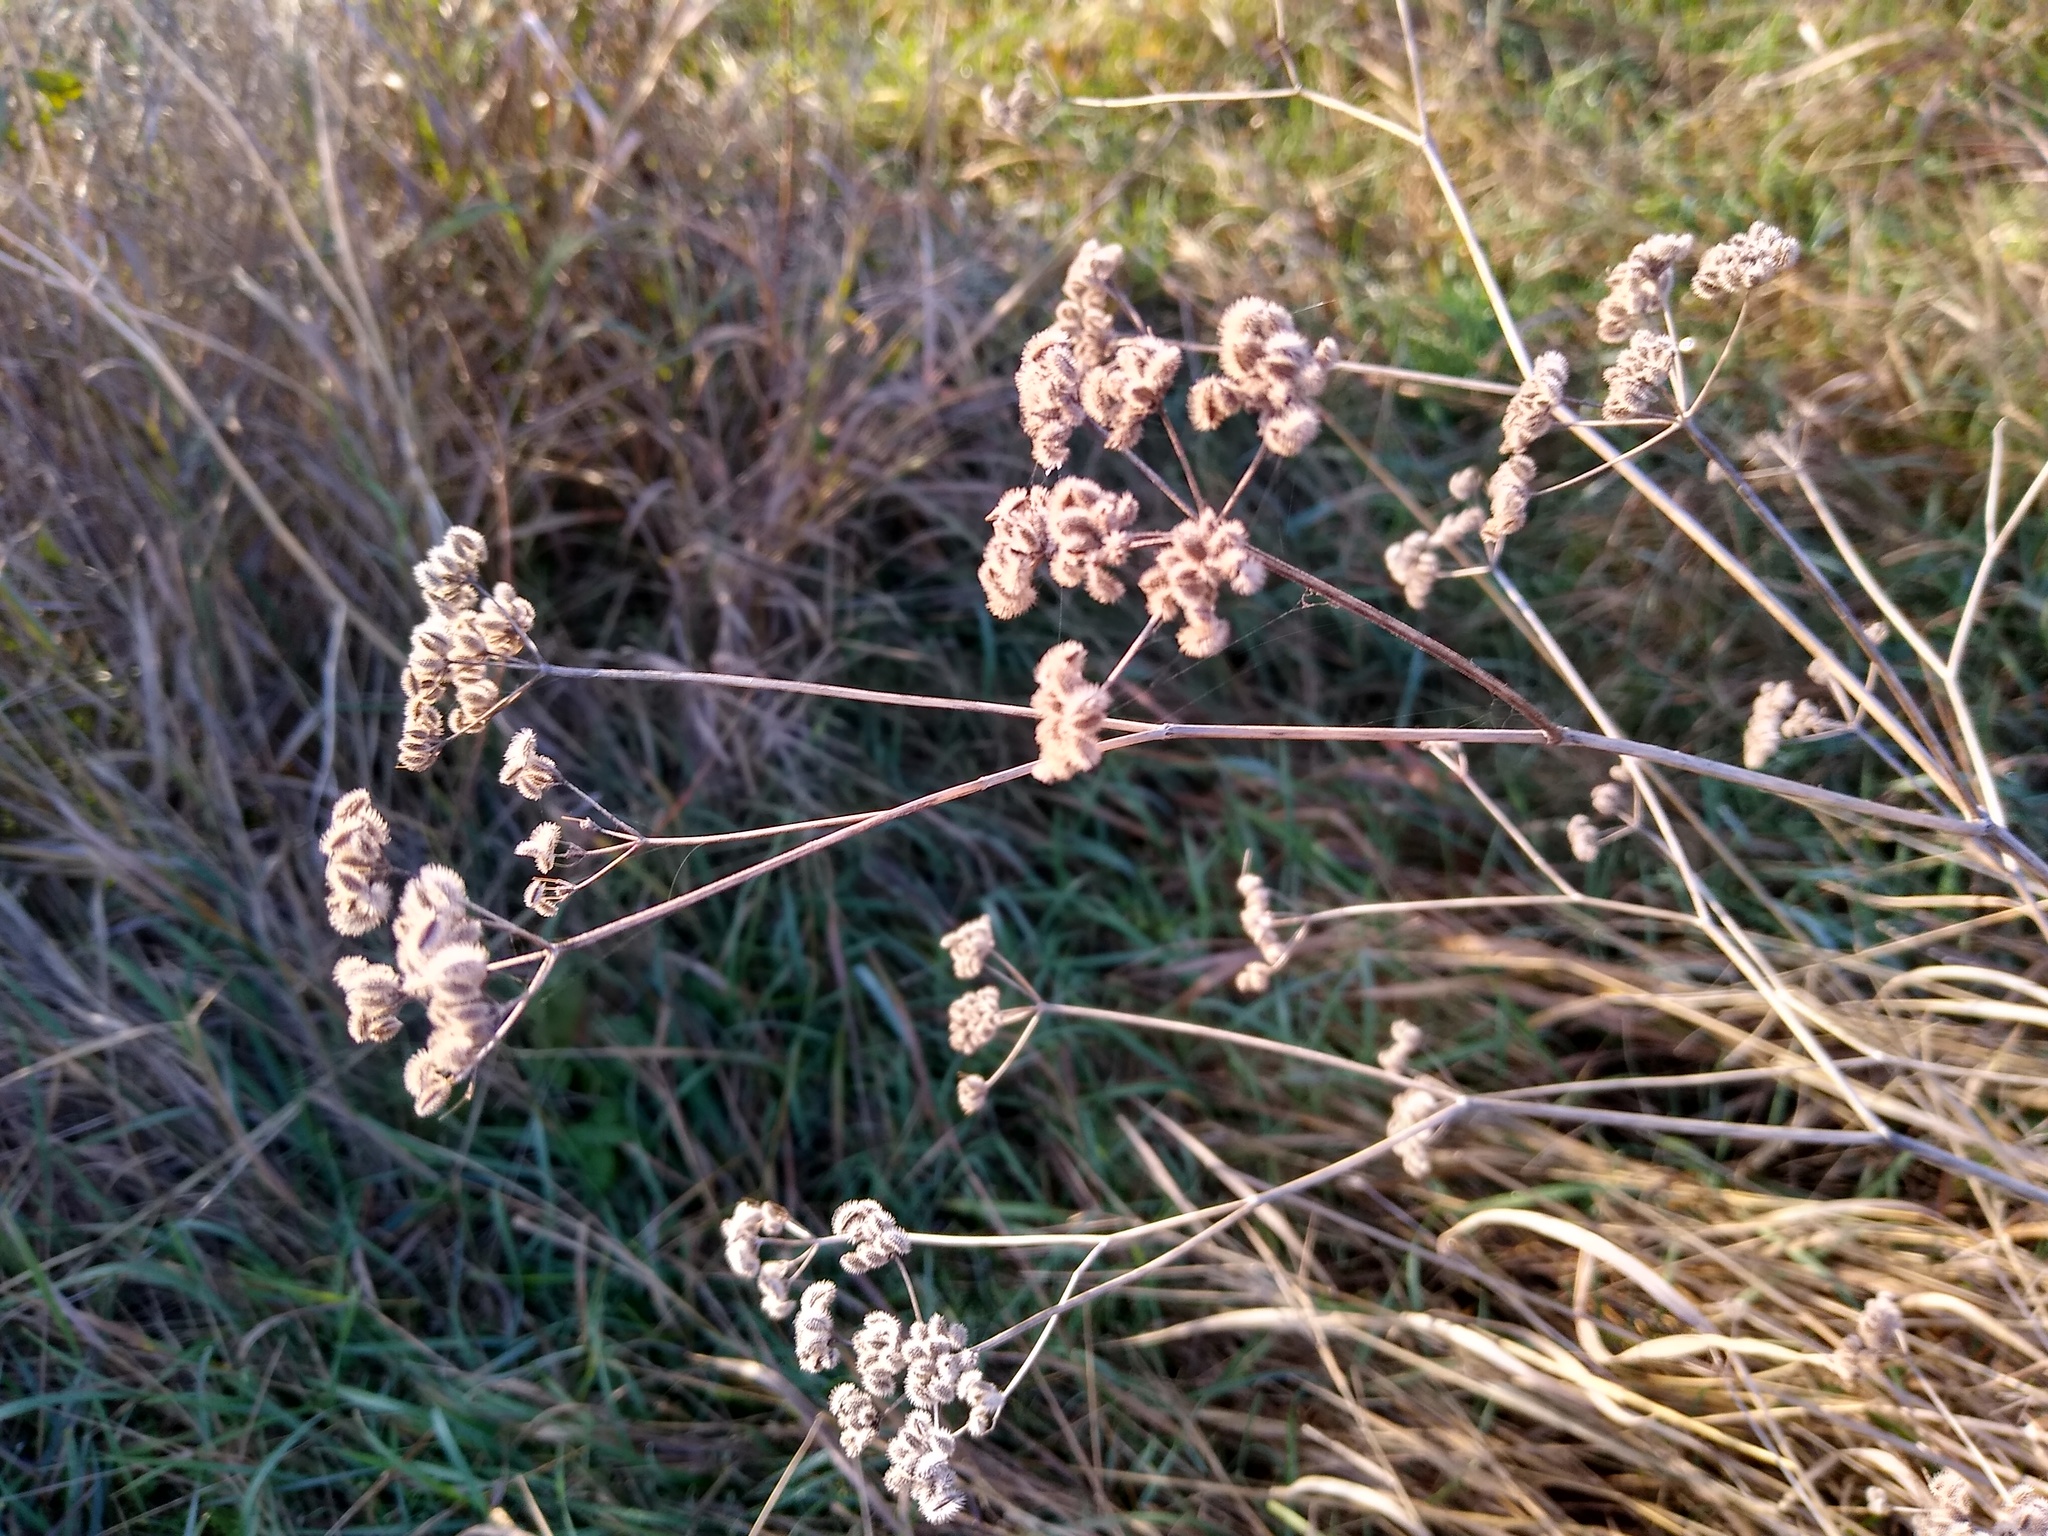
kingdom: Plantae
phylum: Tracheophyta
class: Magnoliopsida
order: Apiales
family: Apiaceae
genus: Torilis
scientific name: Torilis arvensis
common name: Spreading hedge-parsley
